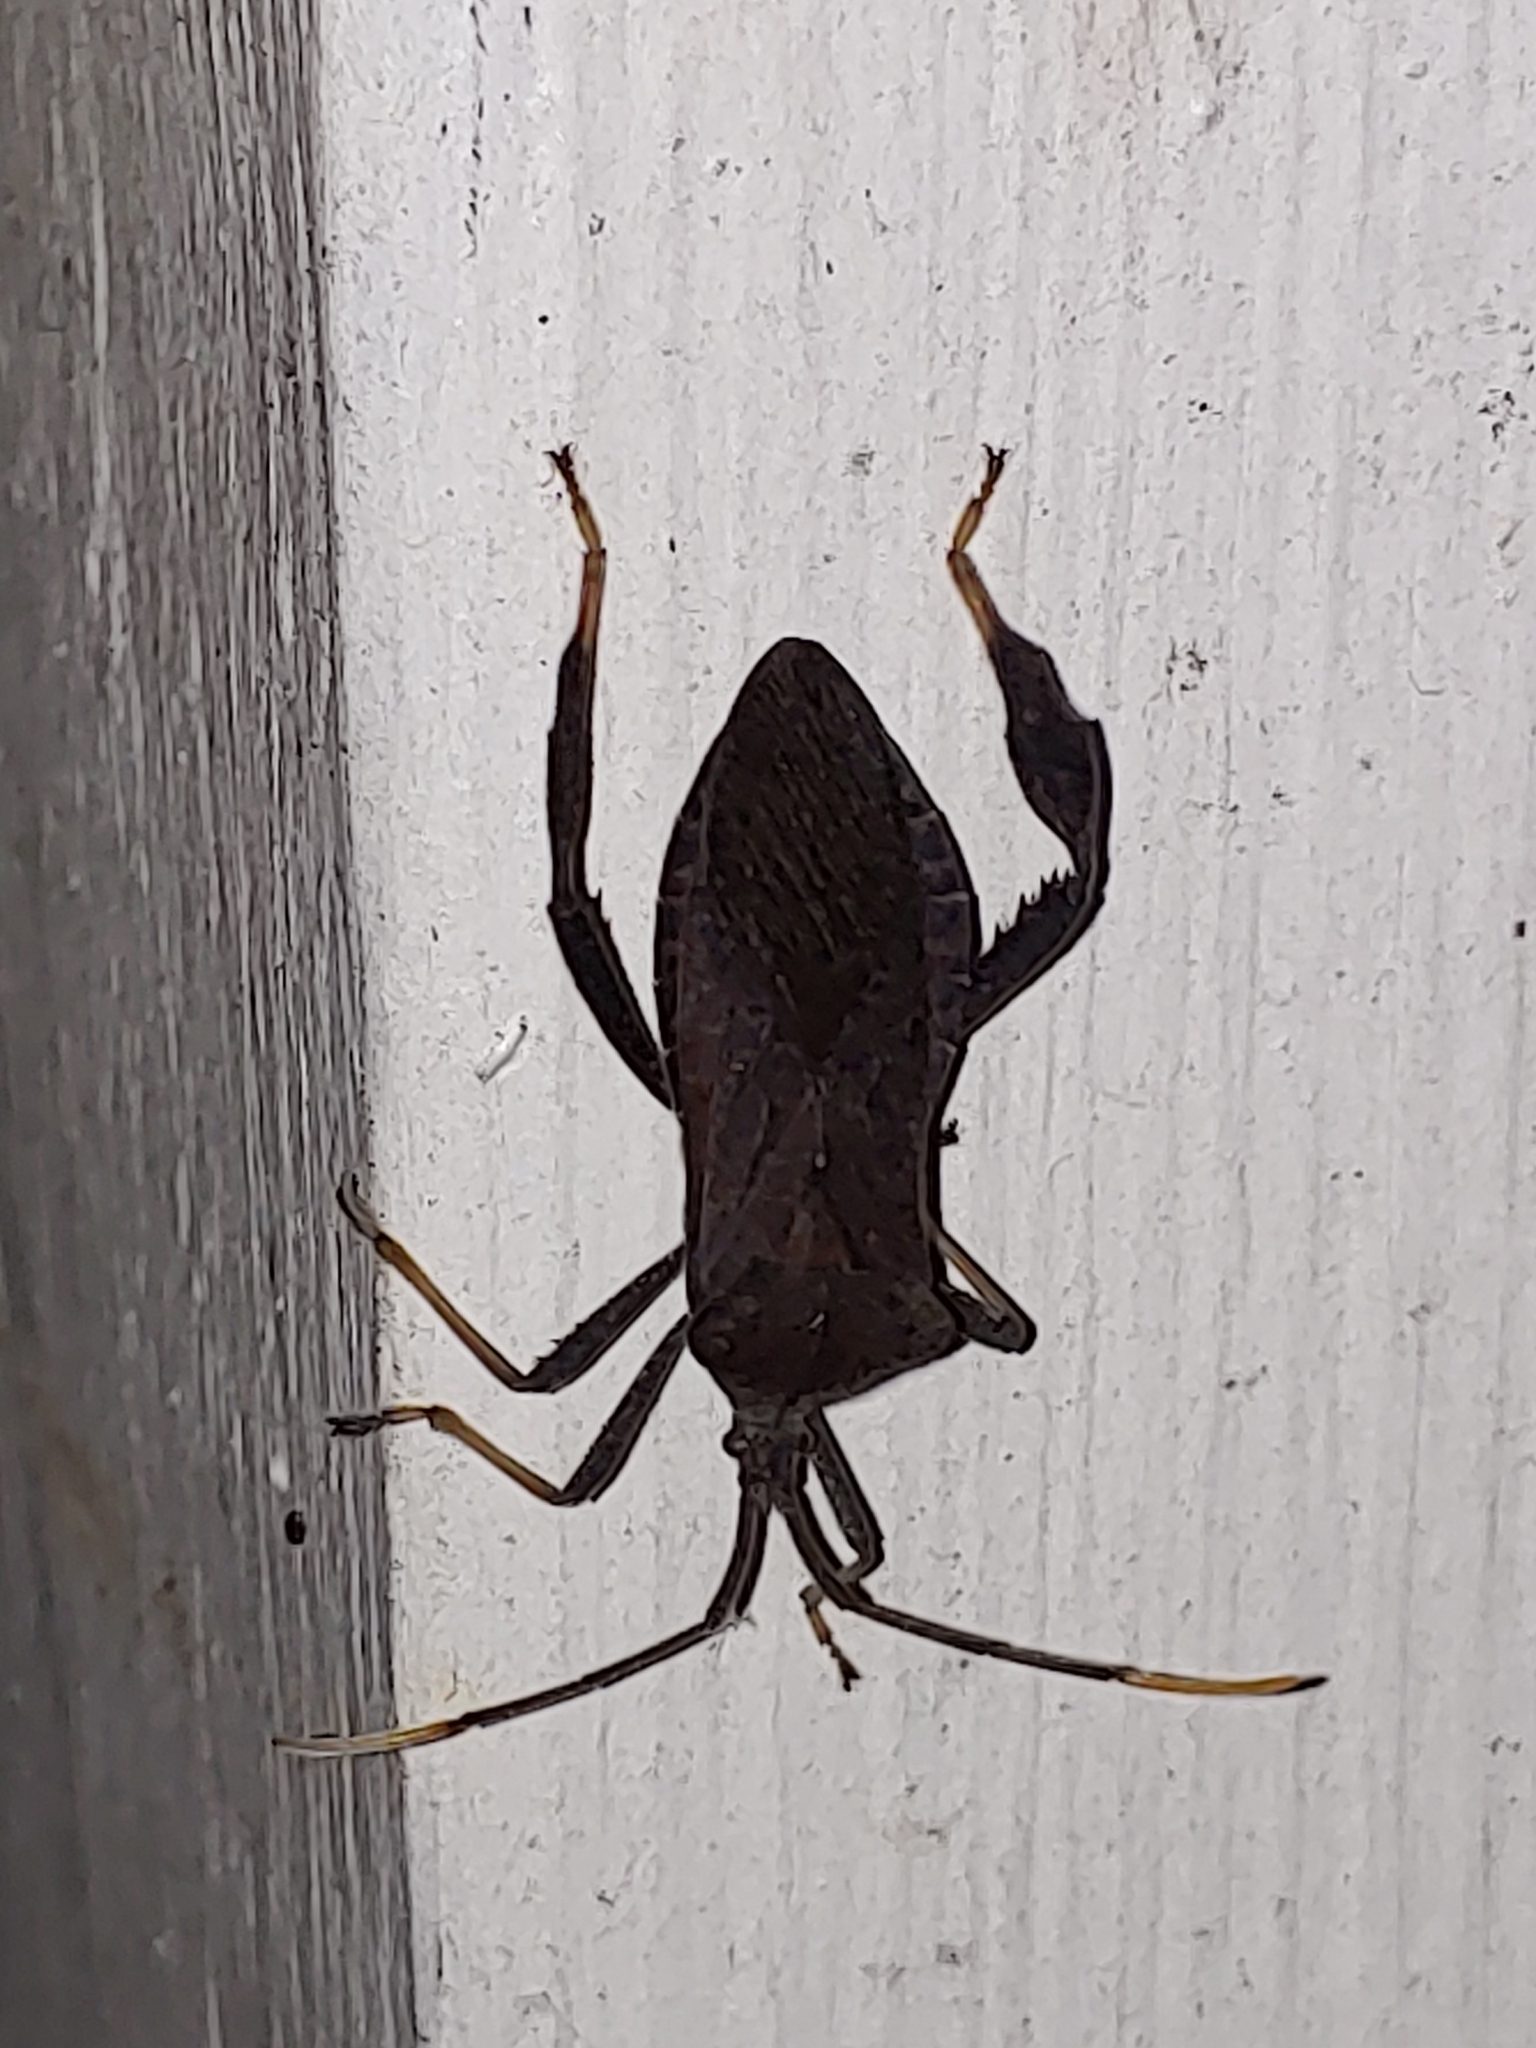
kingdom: Animalia
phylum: Arthropoda
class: Insecta
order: Hemiptera
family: Coreidae
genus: Acanthocephala
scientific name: Acanthocephala terminalis
